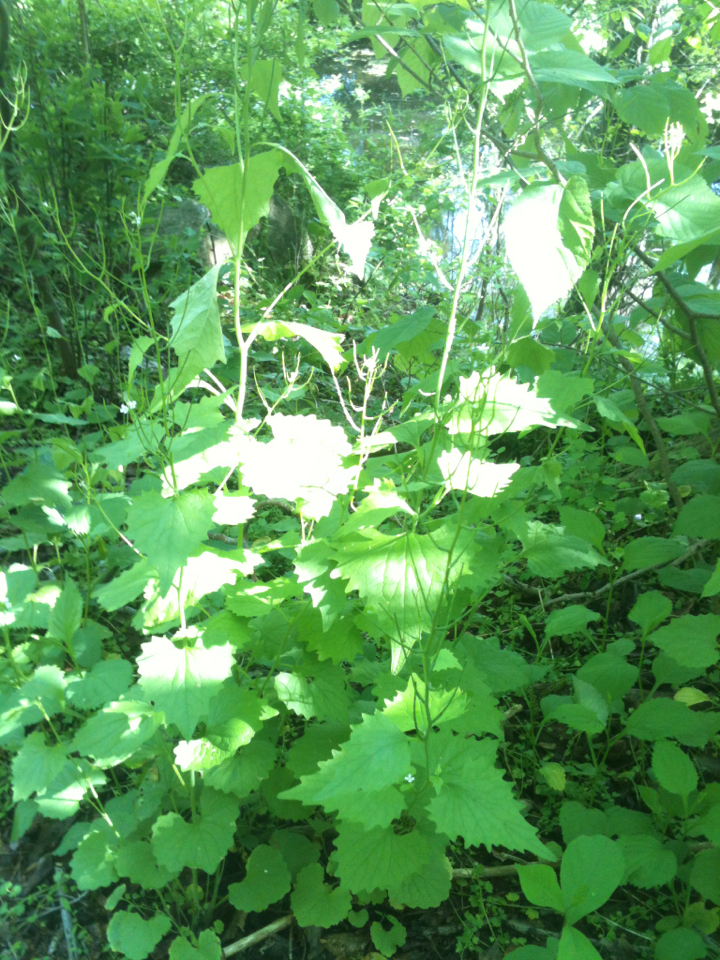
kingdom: Plantae
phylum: Tracheophyta
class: Magnoliopsida
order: Brassicales
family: Brassicaceae
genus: Alliaria
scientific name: Alliaria petiolata
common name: Garlic mustard
